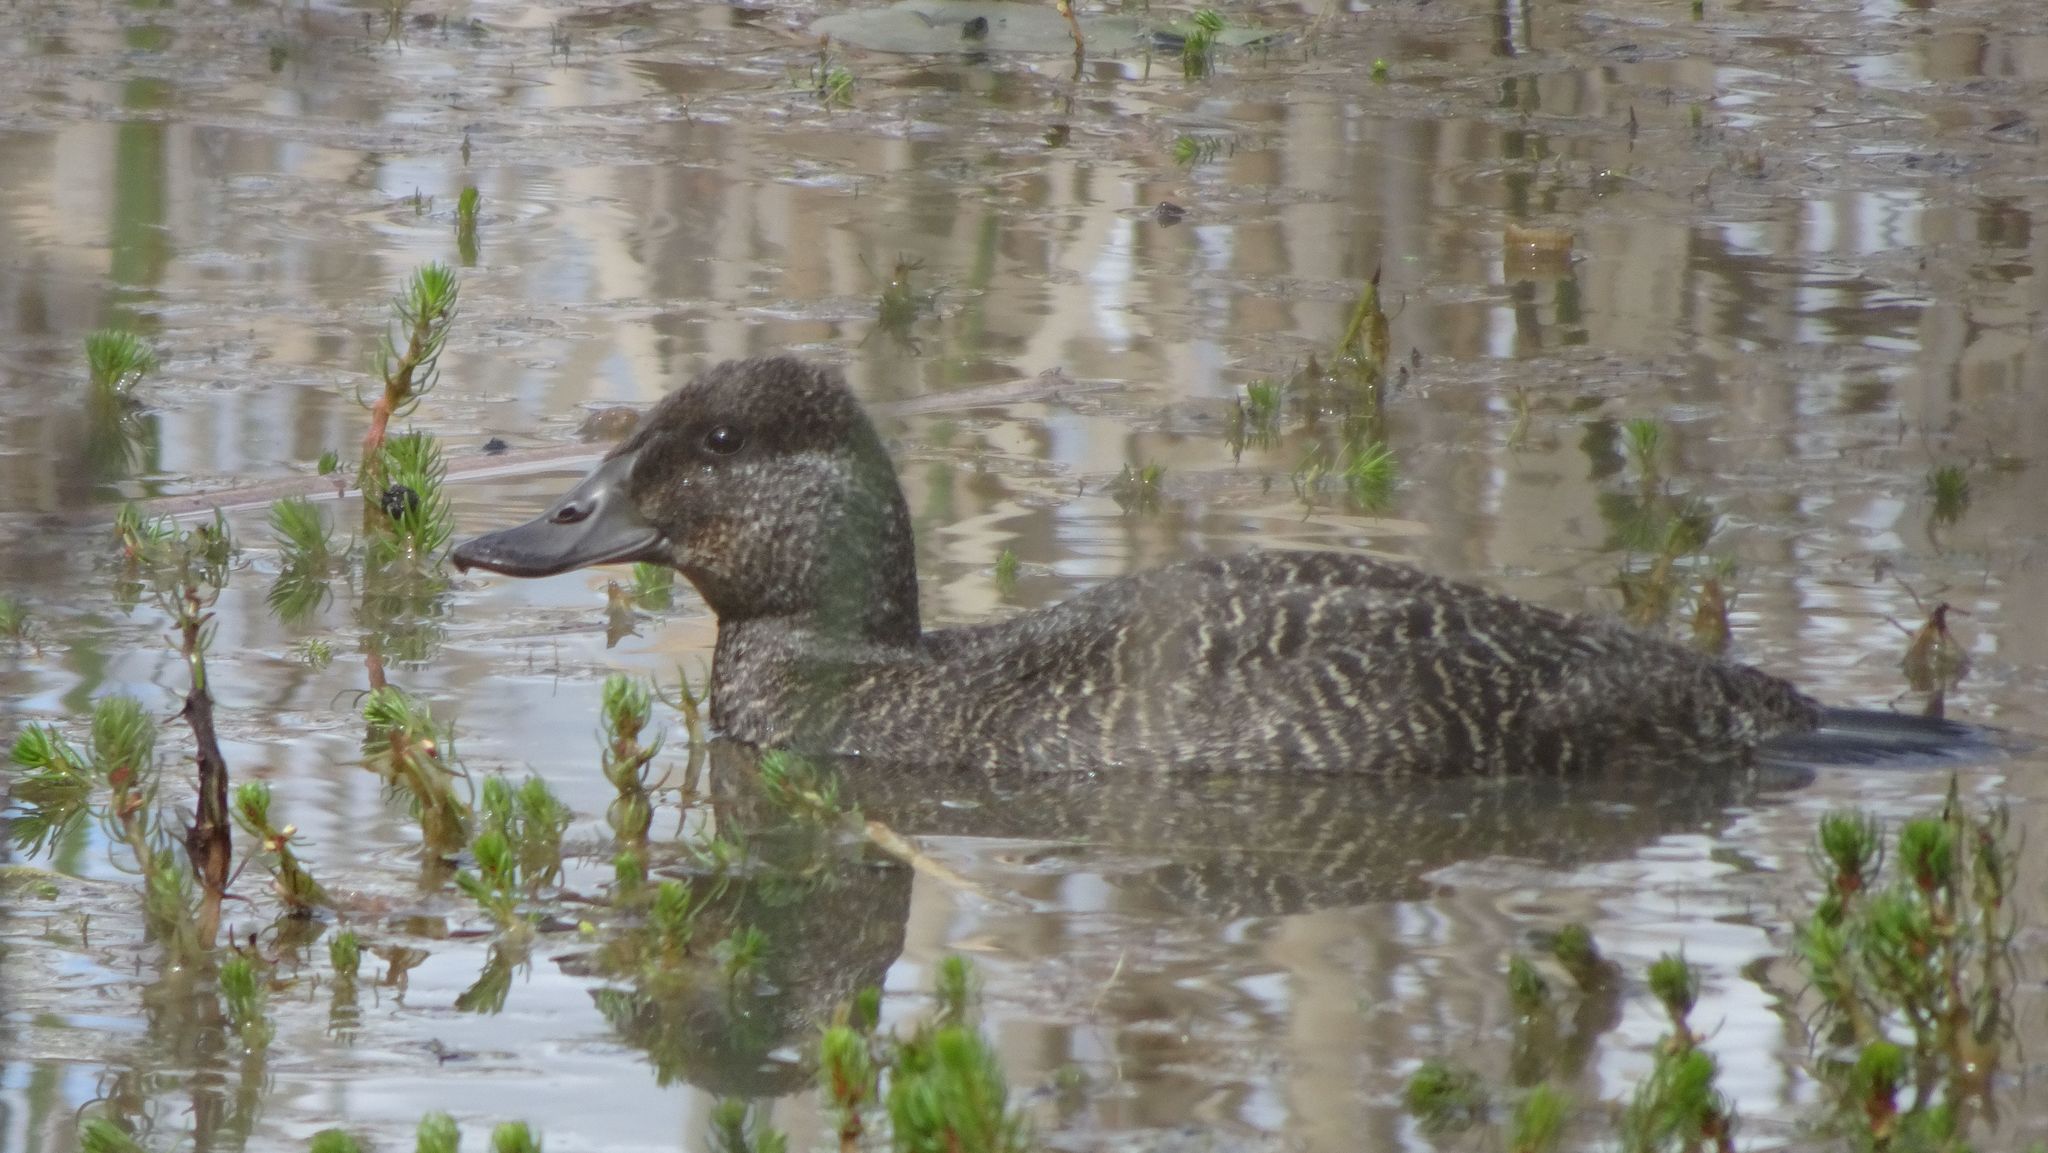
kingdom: Animalia
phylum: Chordata
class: Aves
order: Anseriformes
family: Anatidae
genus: Oxyura
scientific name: Oxyura australis
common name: Blue-billed duck
